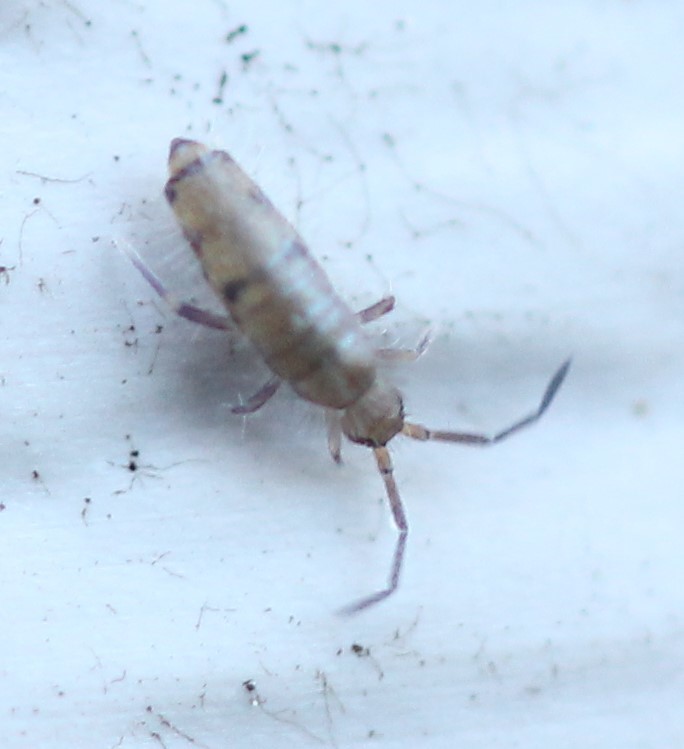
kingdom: Animalia
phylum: Arthropoda
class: Collembola
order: Entomobryomorpha
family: Entomobryidae
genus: Willowsia
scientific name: Willowsia nigromaculata
